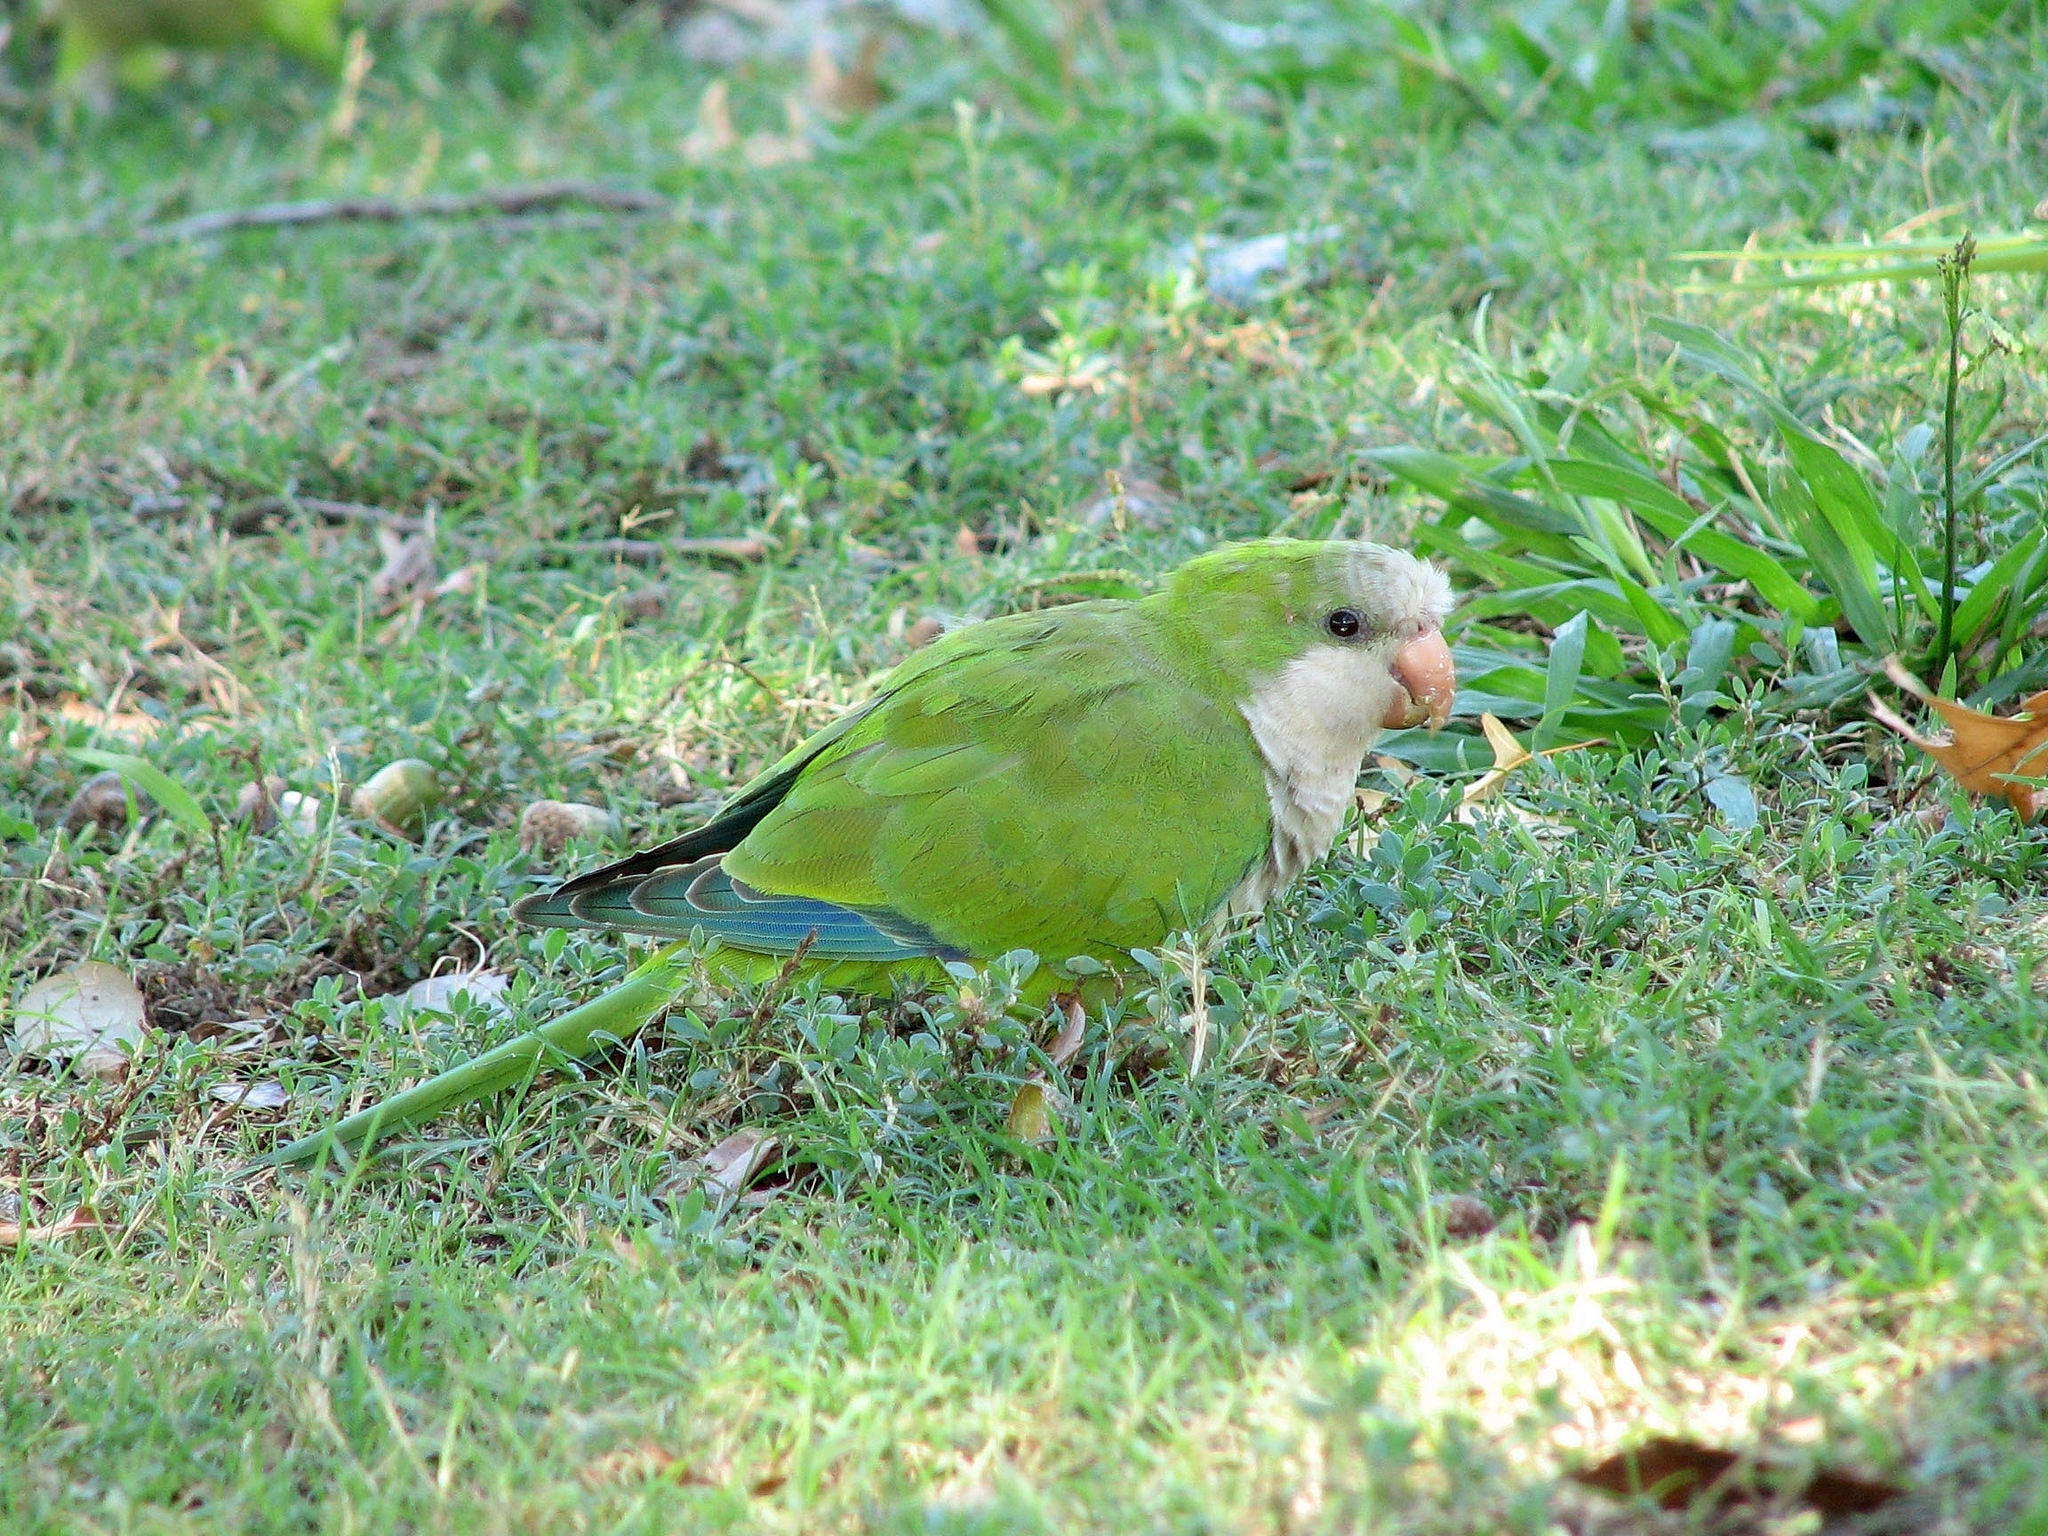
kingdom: Animalia
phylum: Chordata
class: Aves
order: Psittaciformes
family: Psittacidae
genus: Myiopsitta
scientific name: Myiopsitta monachus
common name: Monk parakeet
